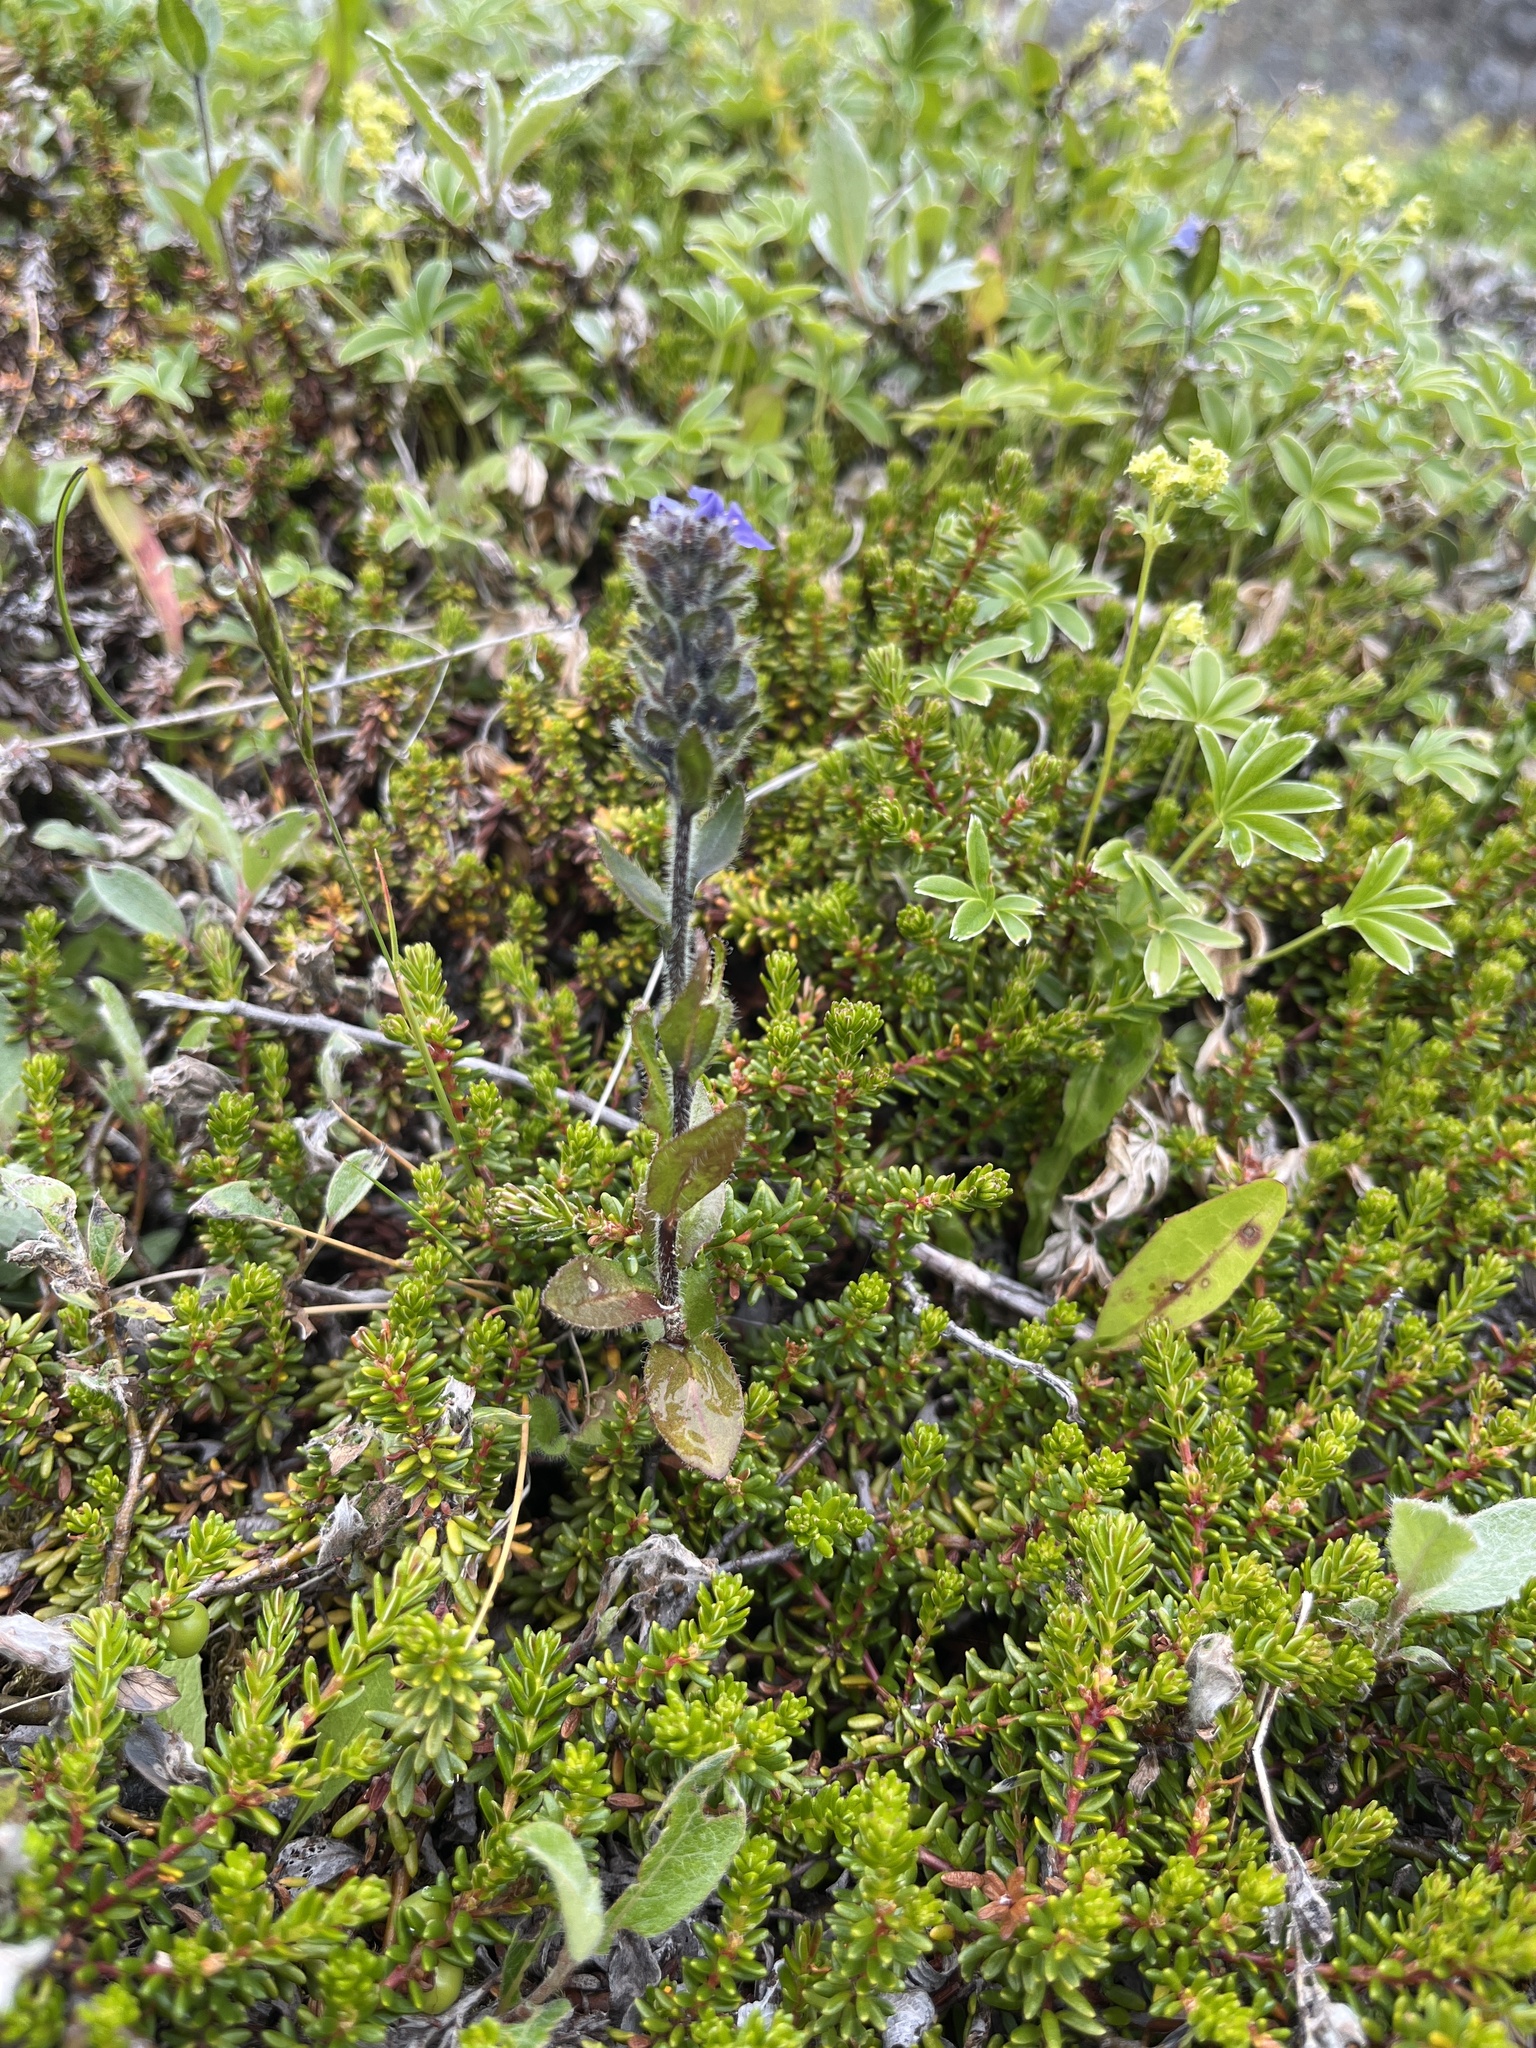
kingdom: Plantae
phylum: Tracheophyta
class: Magnoliopsida
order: Lamiales
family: Plantaginaceae
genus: Veronica
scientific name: Veronica wormskjoldii
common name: American alpine speedwell
